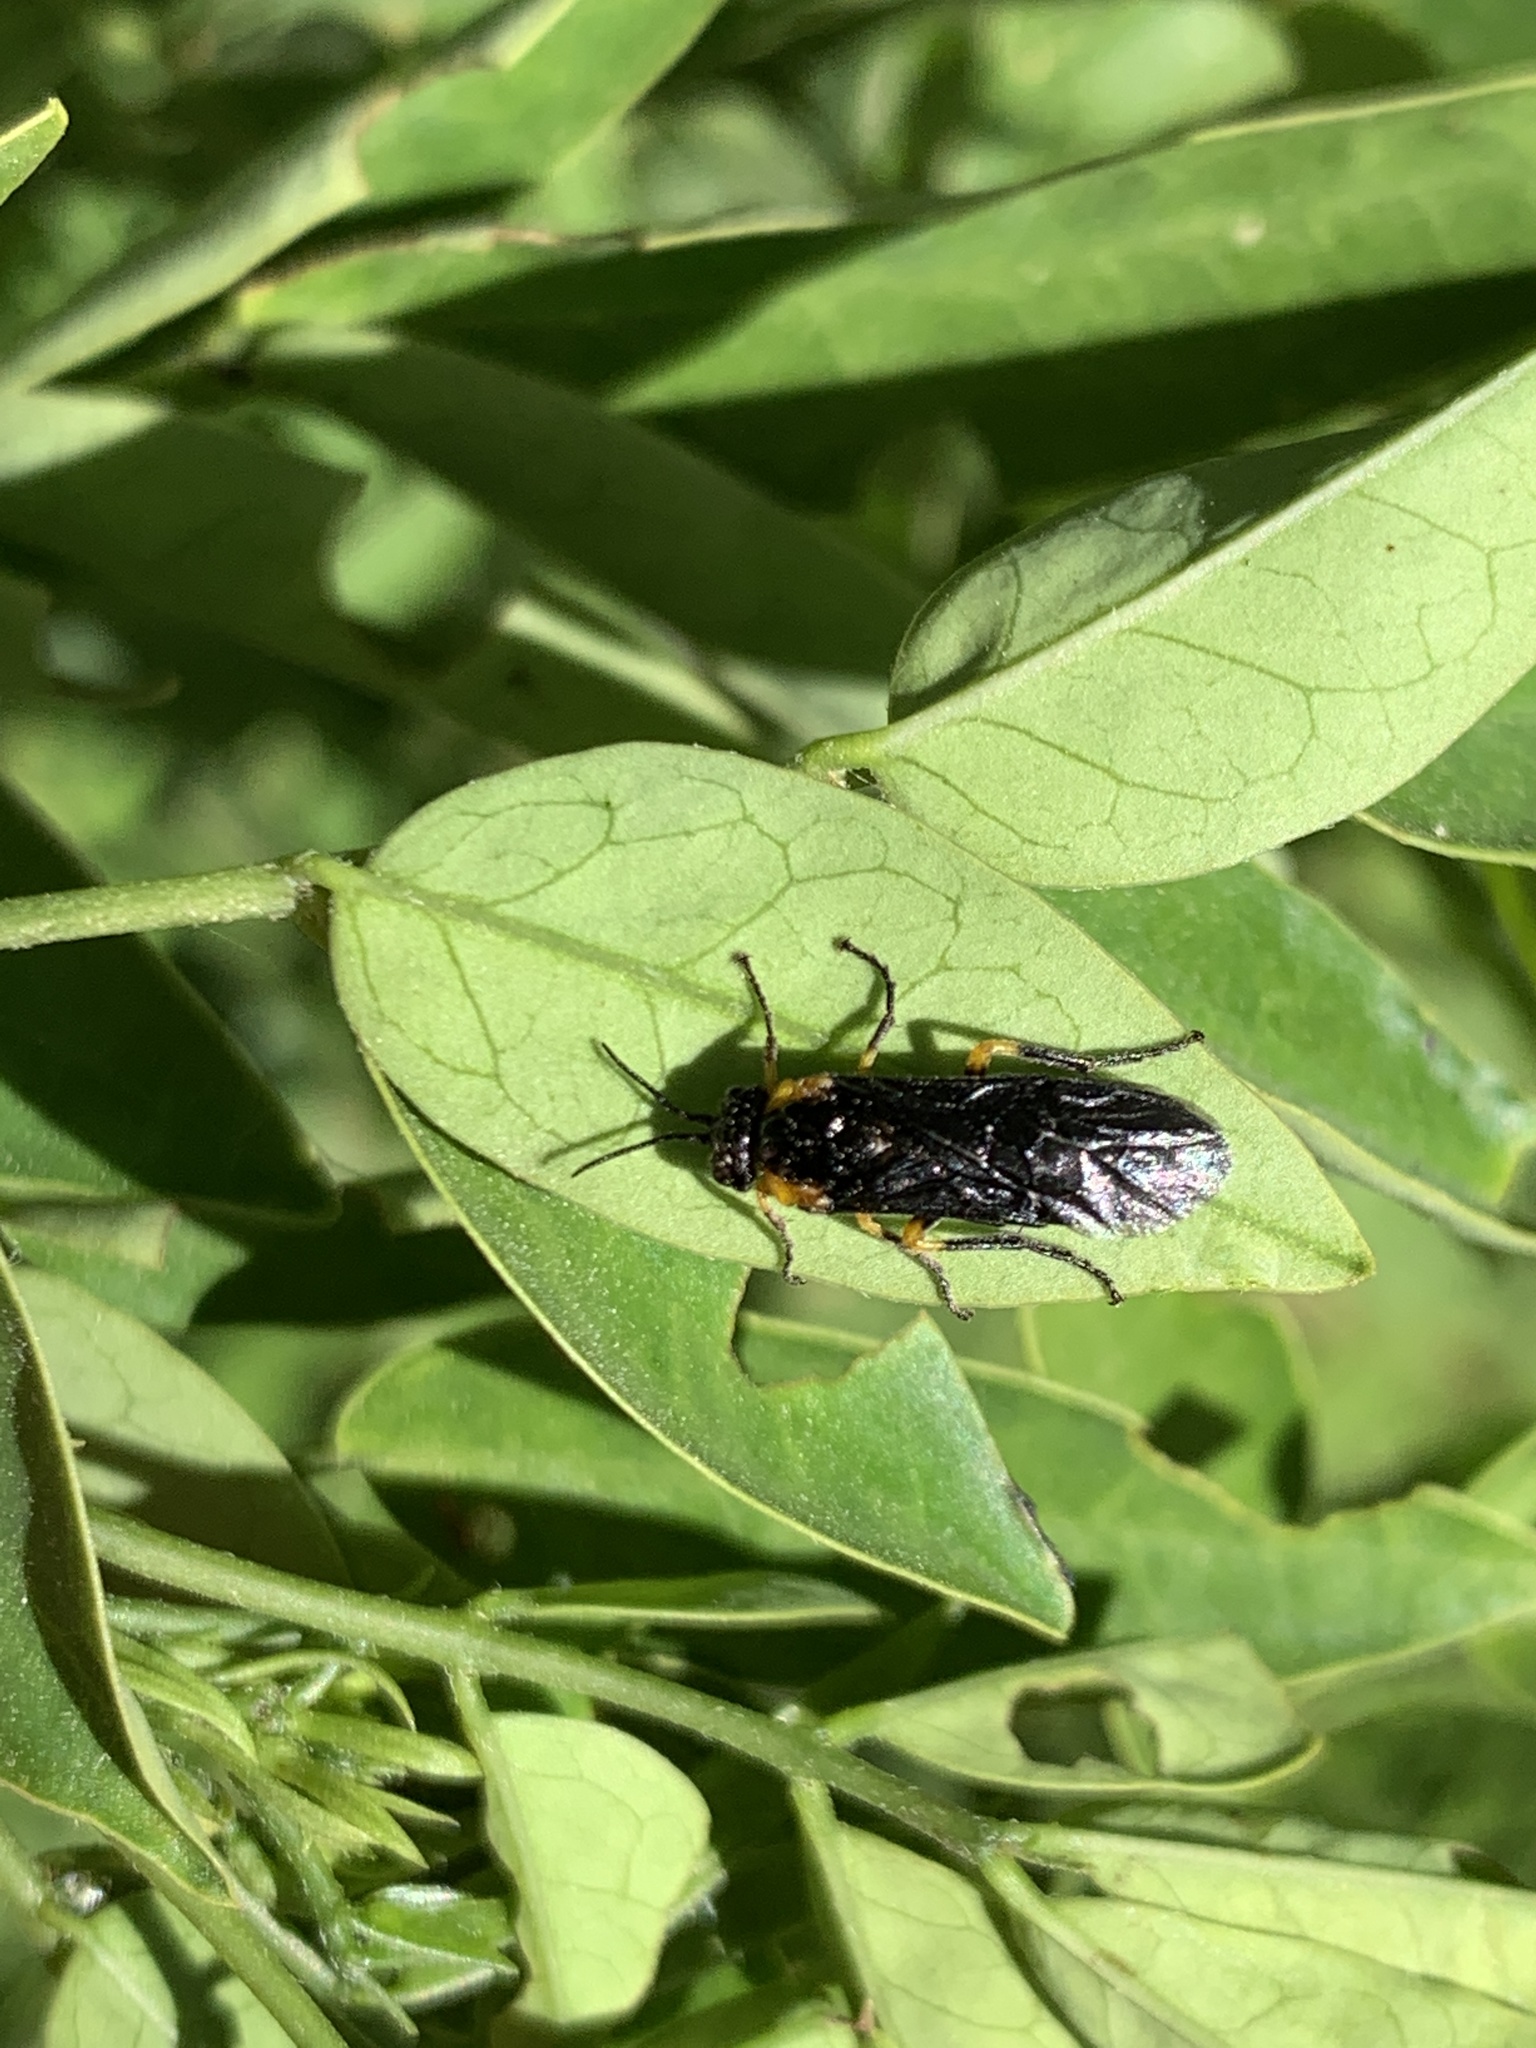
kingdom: Animalia
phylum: Arthropoda
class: Insecta
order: Hymenoptera
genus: Adurgoa
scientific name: Adurgoa
